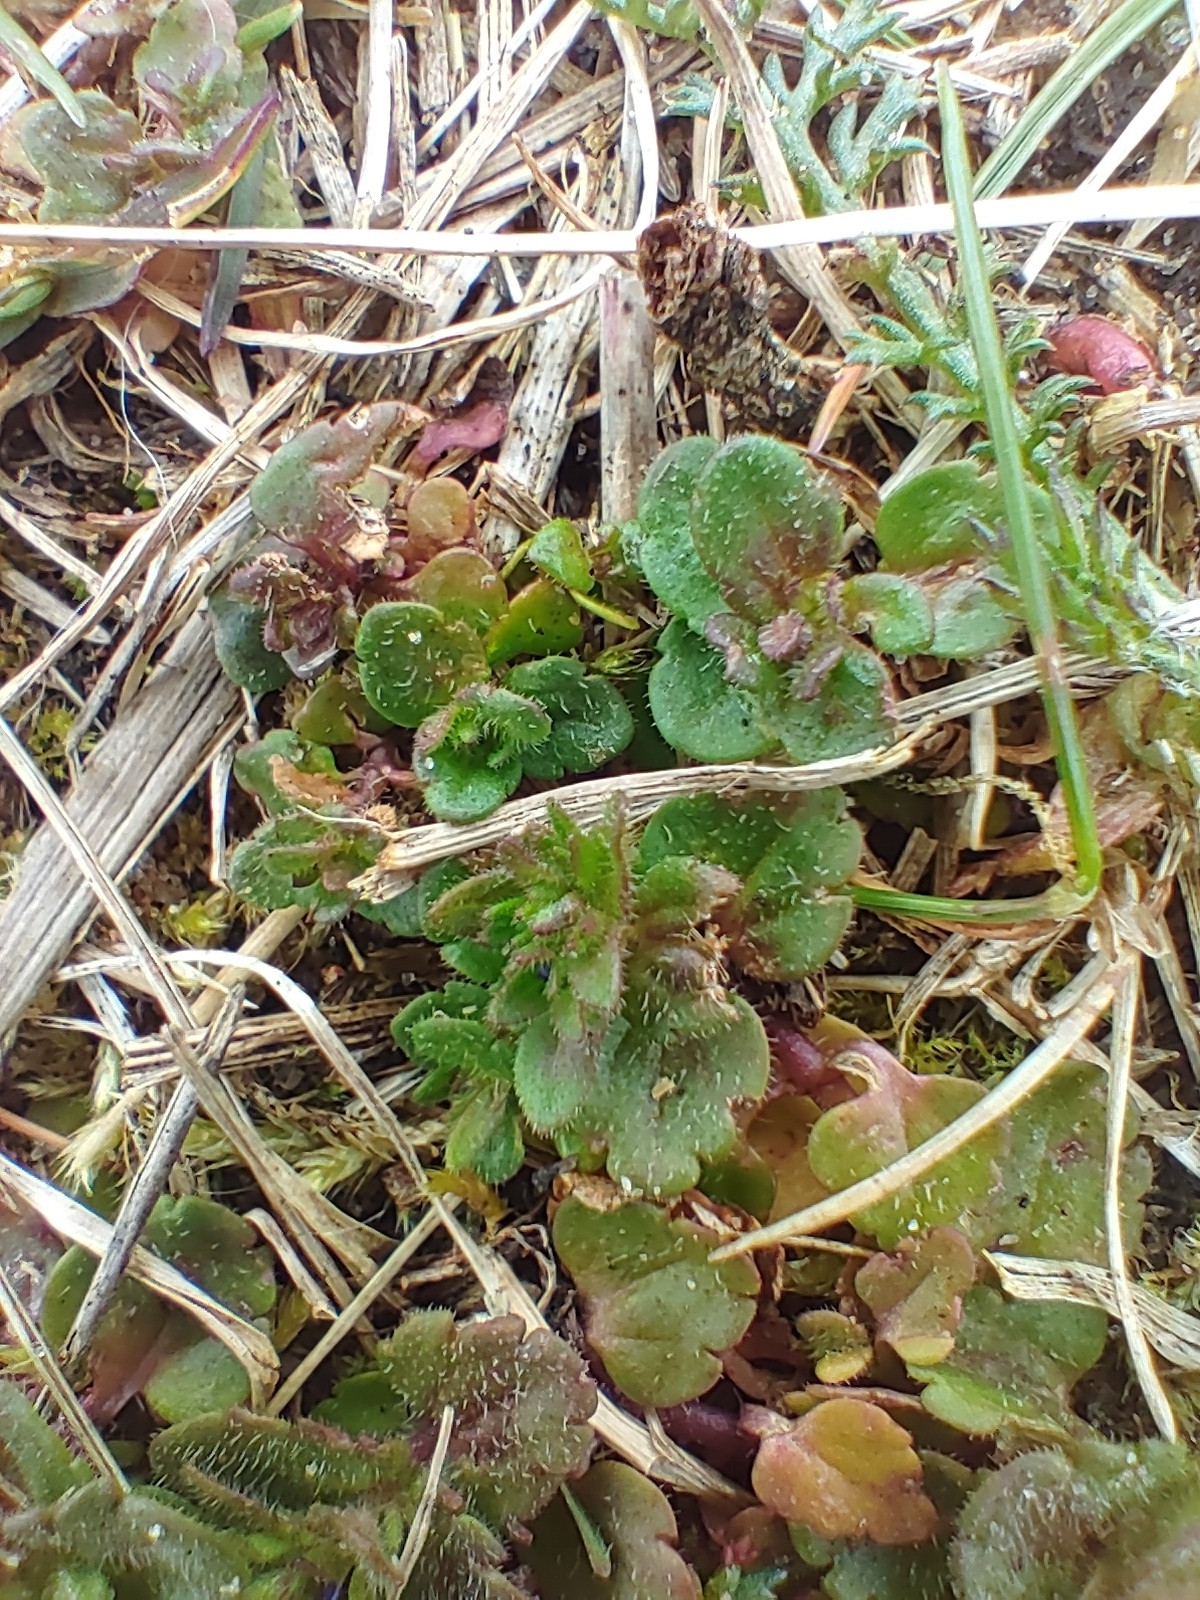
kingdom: Plantae
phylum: Tracheophyta
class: Magnoliopsida
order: Lamiales
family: Plantaginaceae
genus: Veronica
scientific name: Veronica arvensis
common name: Corn speedwell
